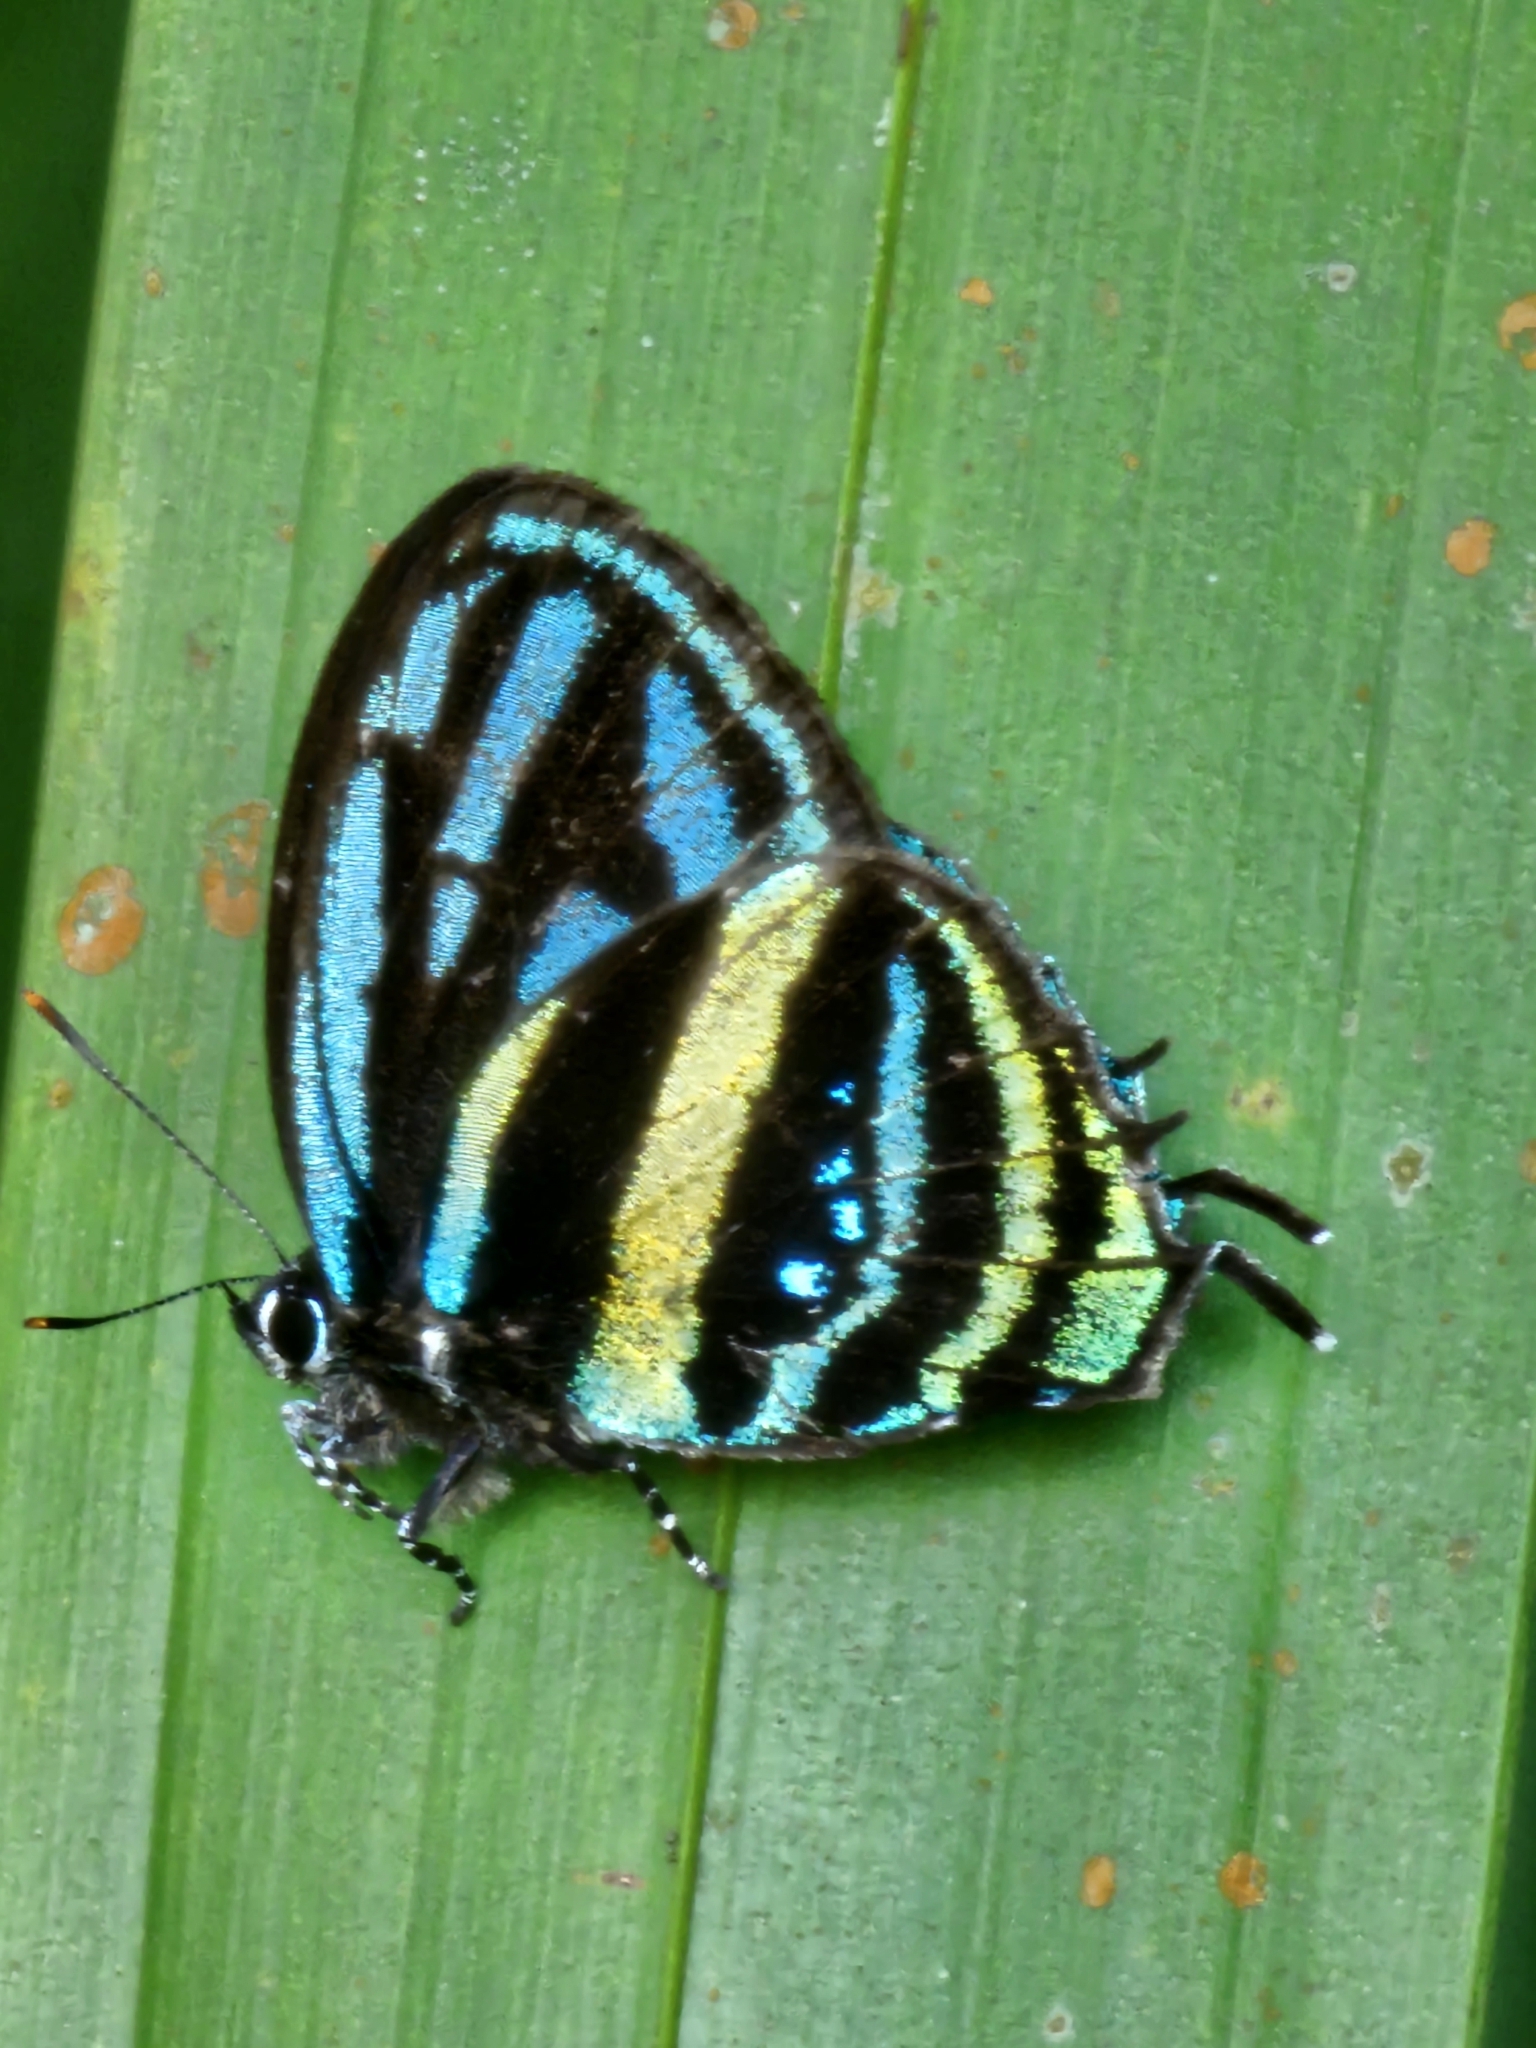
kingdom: Animalia
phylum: Arthropoda
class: Insecta
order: Lepidoptera
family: Lycaenidae
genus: Thestius
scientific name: Thestius pholeus
